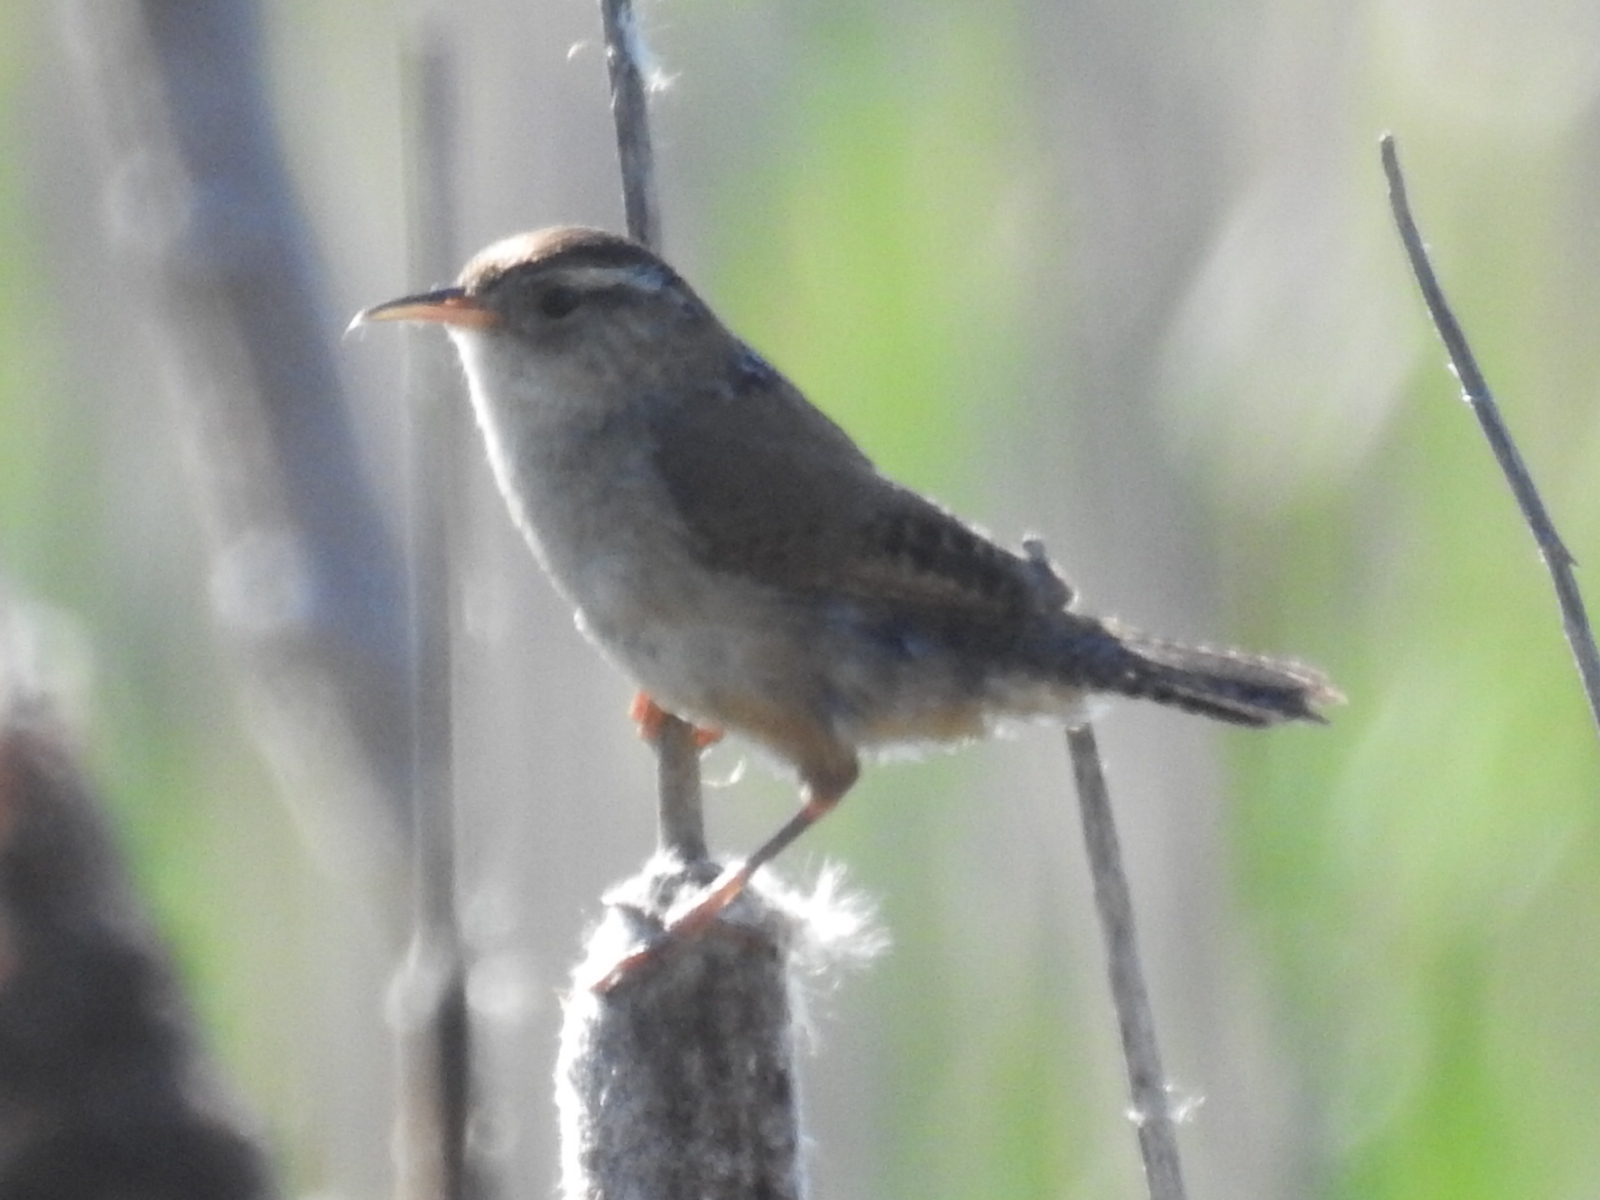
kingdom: Animalia
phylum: Chordata
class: Aves
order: Passeriformes
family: Troglodytidae
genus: Cistothorus
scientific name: Cistothorus palustris
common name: Marsh wren
